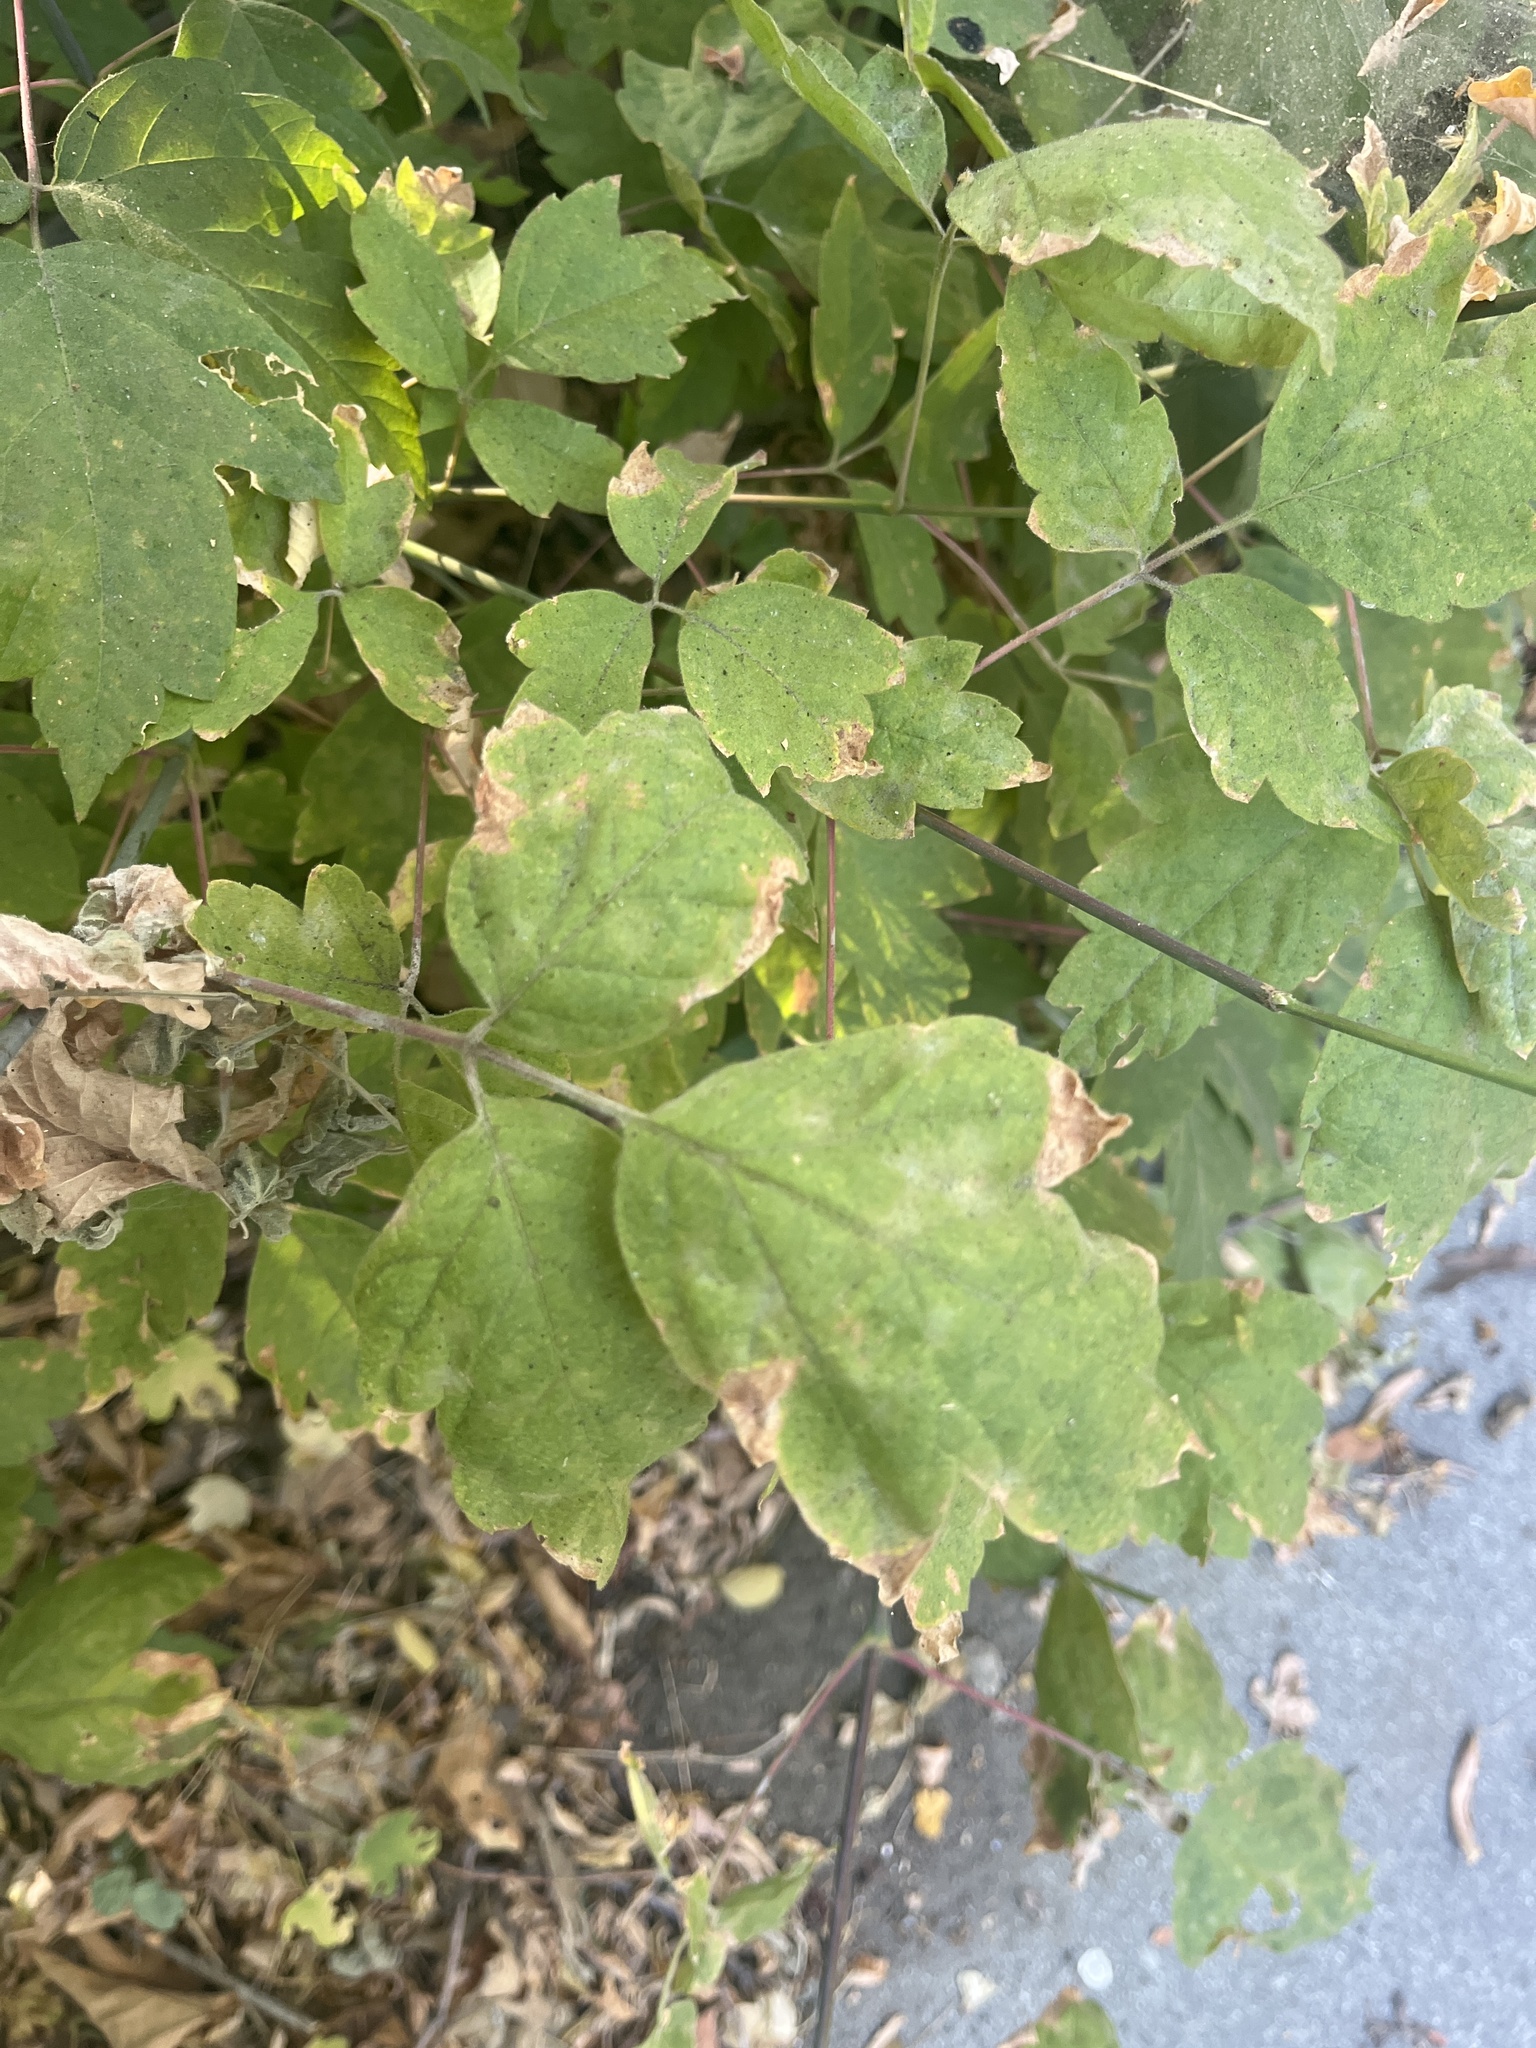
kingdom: Plantae
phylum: Tracheophyta
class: Magnoliopsida
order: Sapindales
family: Sapindaceae
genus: Acer
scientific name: Acer negundo
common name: Ashleaf maple
